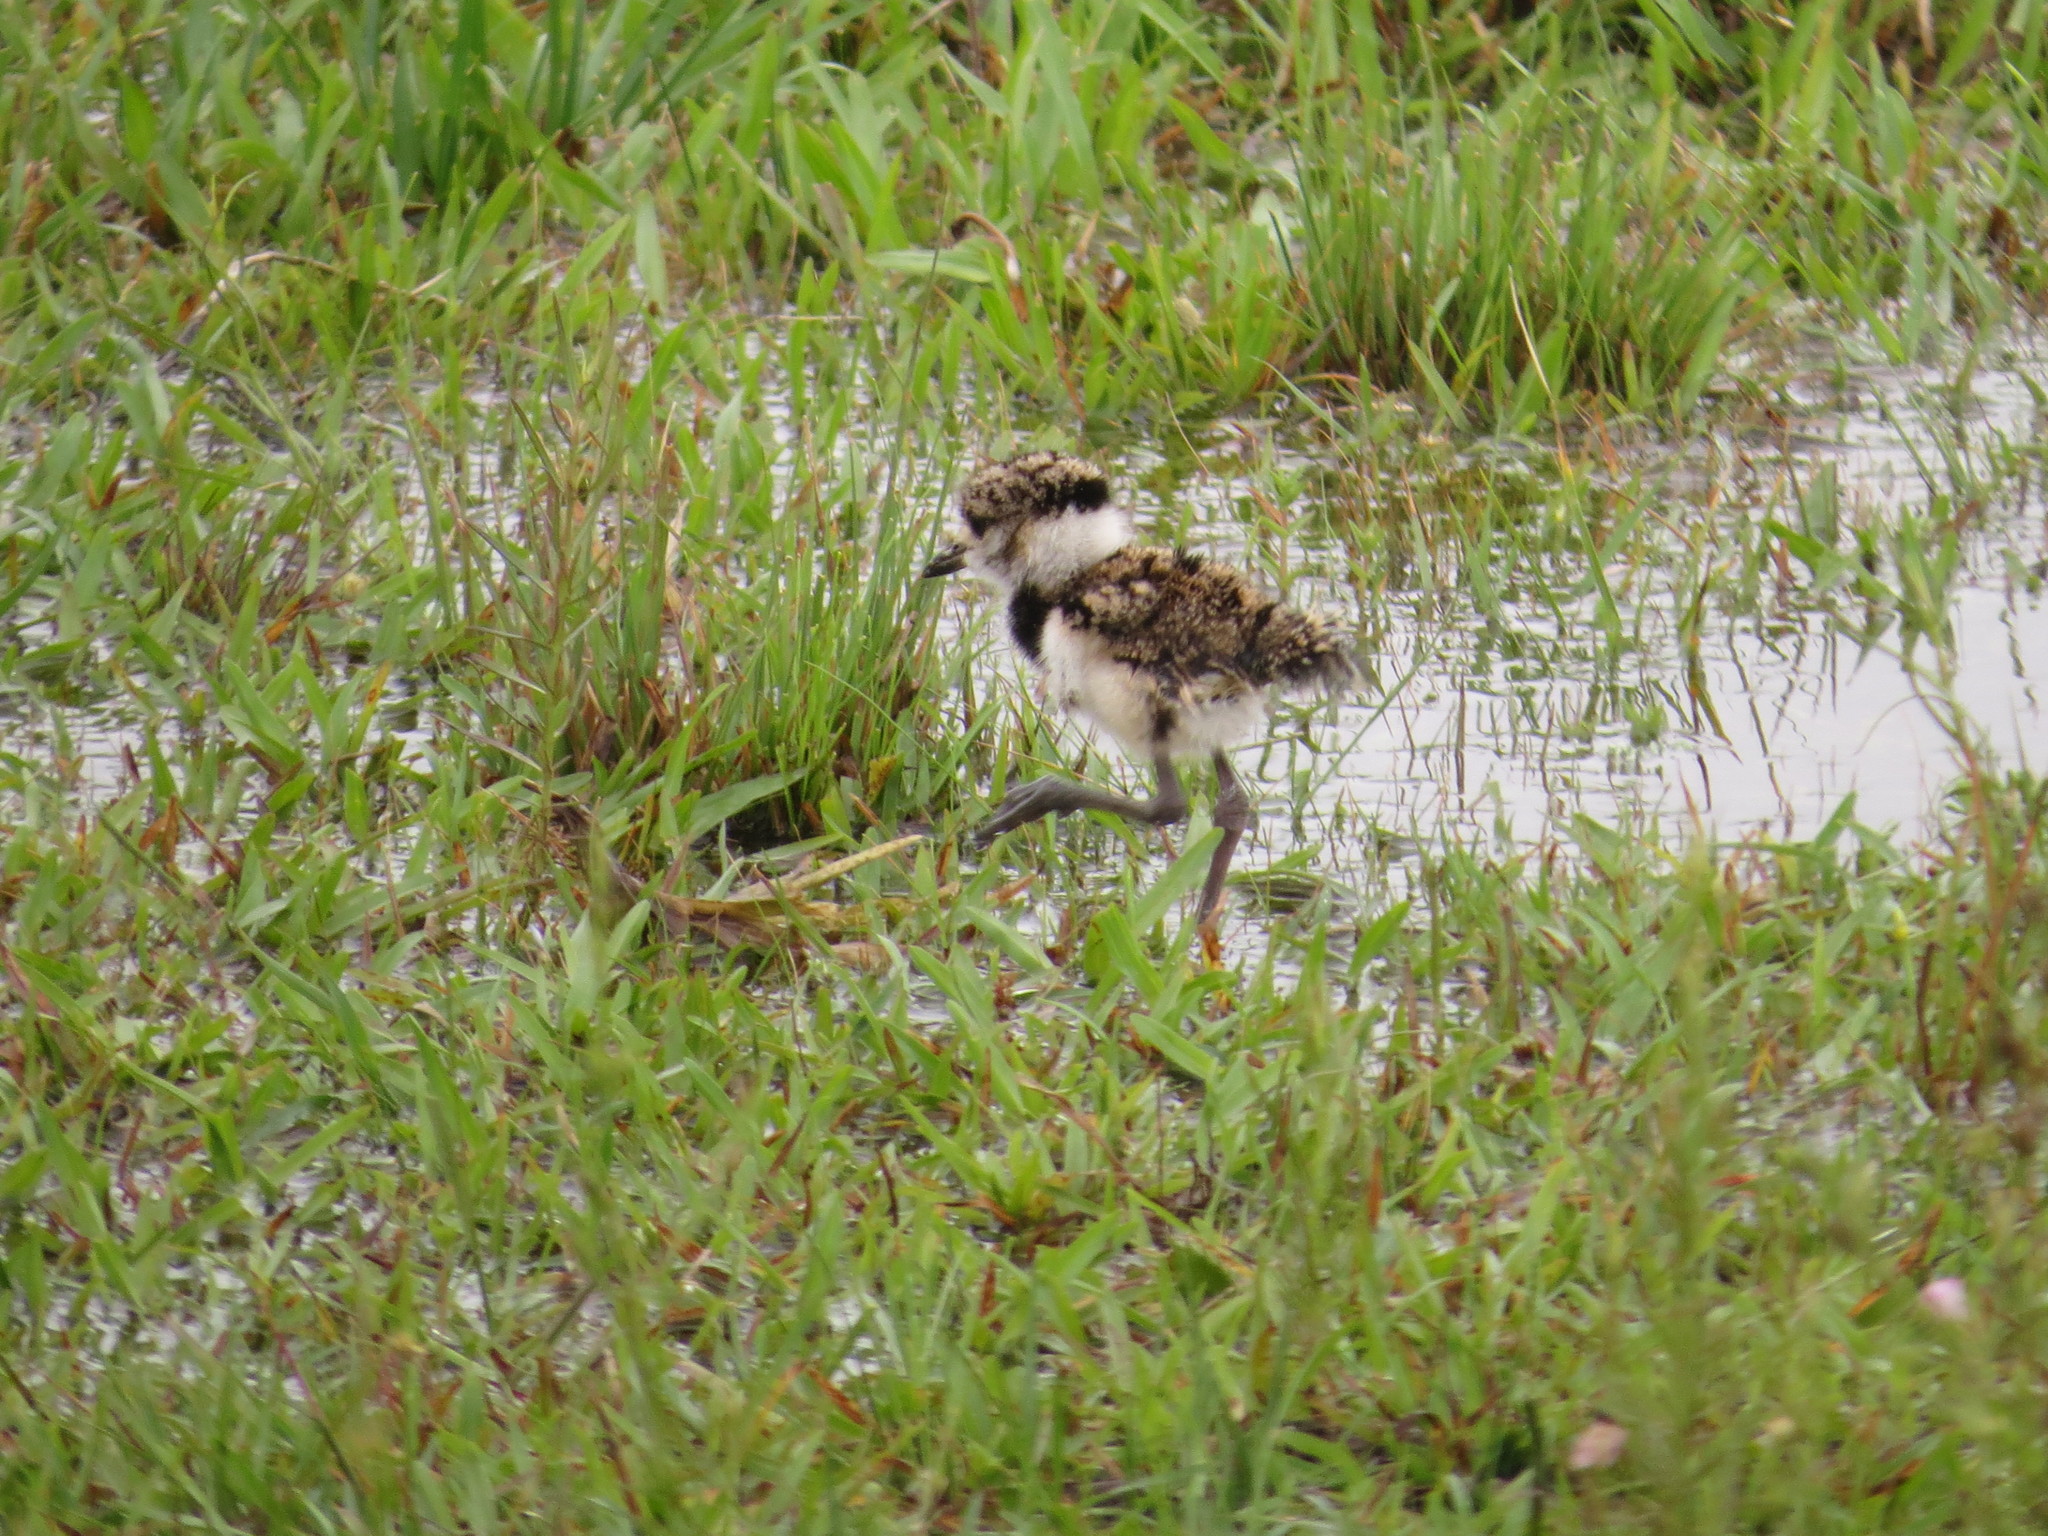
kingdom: Animalia
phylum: Chordata
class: Aves
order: Charadriiformes
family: Charadriidae
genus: Vanellus
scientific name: Vanellus chilensis
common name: Southern lapwing
